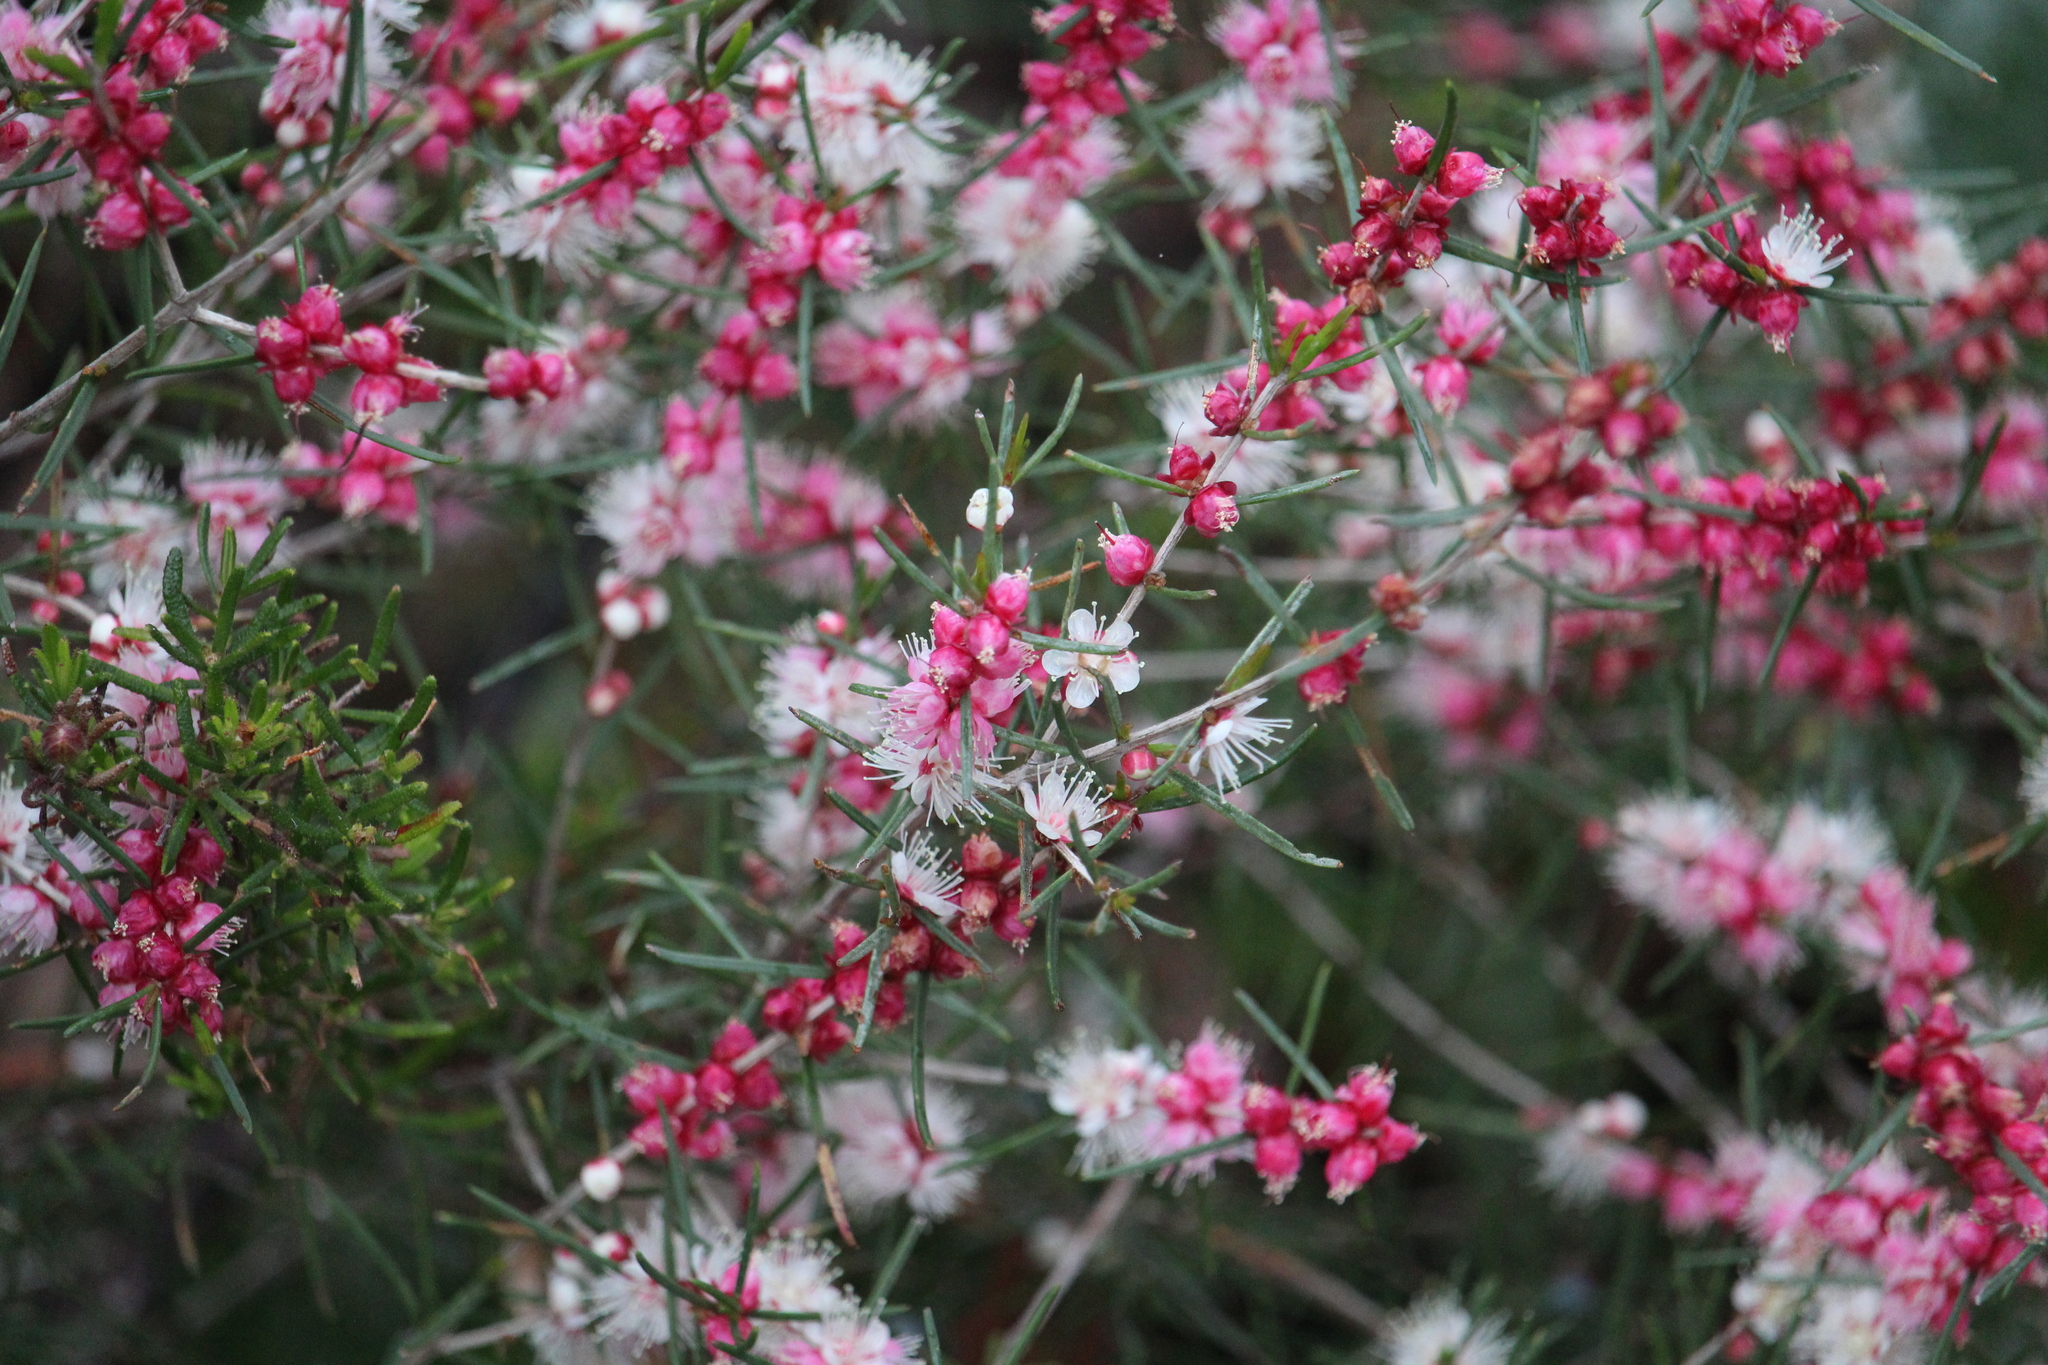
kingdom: Plantae
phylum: Tracheophyta
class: Magnoliopsida
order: Myrtales
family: Myrtaceae
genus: Hypocalymma
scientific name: Hypocalymma angustifolium
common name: White myrtle
